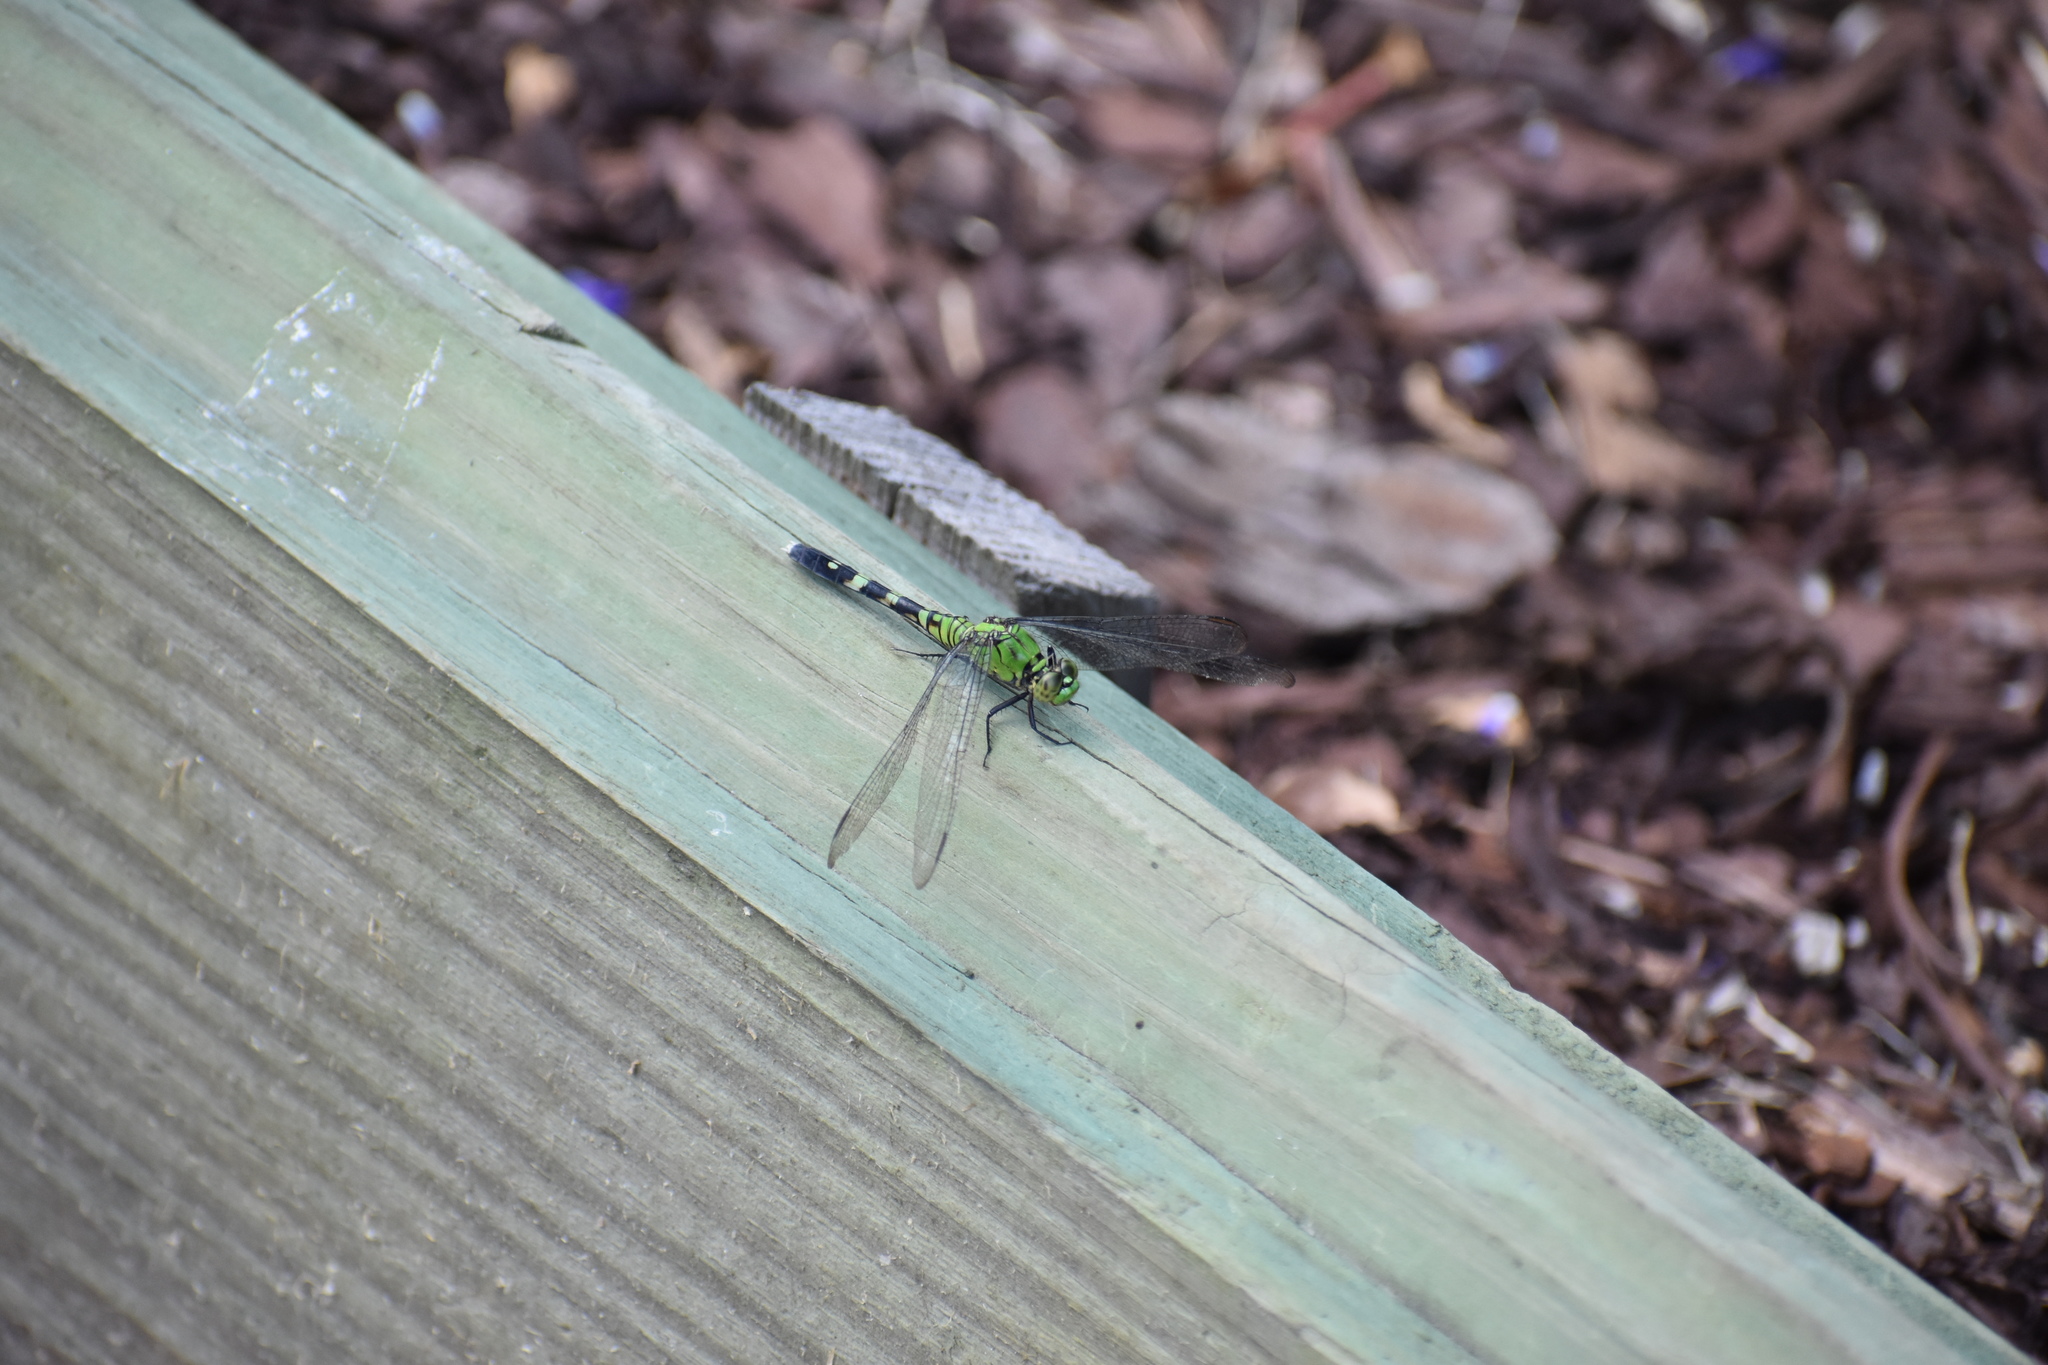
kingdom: Animalia
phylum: Arthropoda
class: Insecta
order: Odonata
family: Libellulidae
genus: Erythemis
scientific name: Erythemis simplicicollis
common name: Eastern pondhawk
